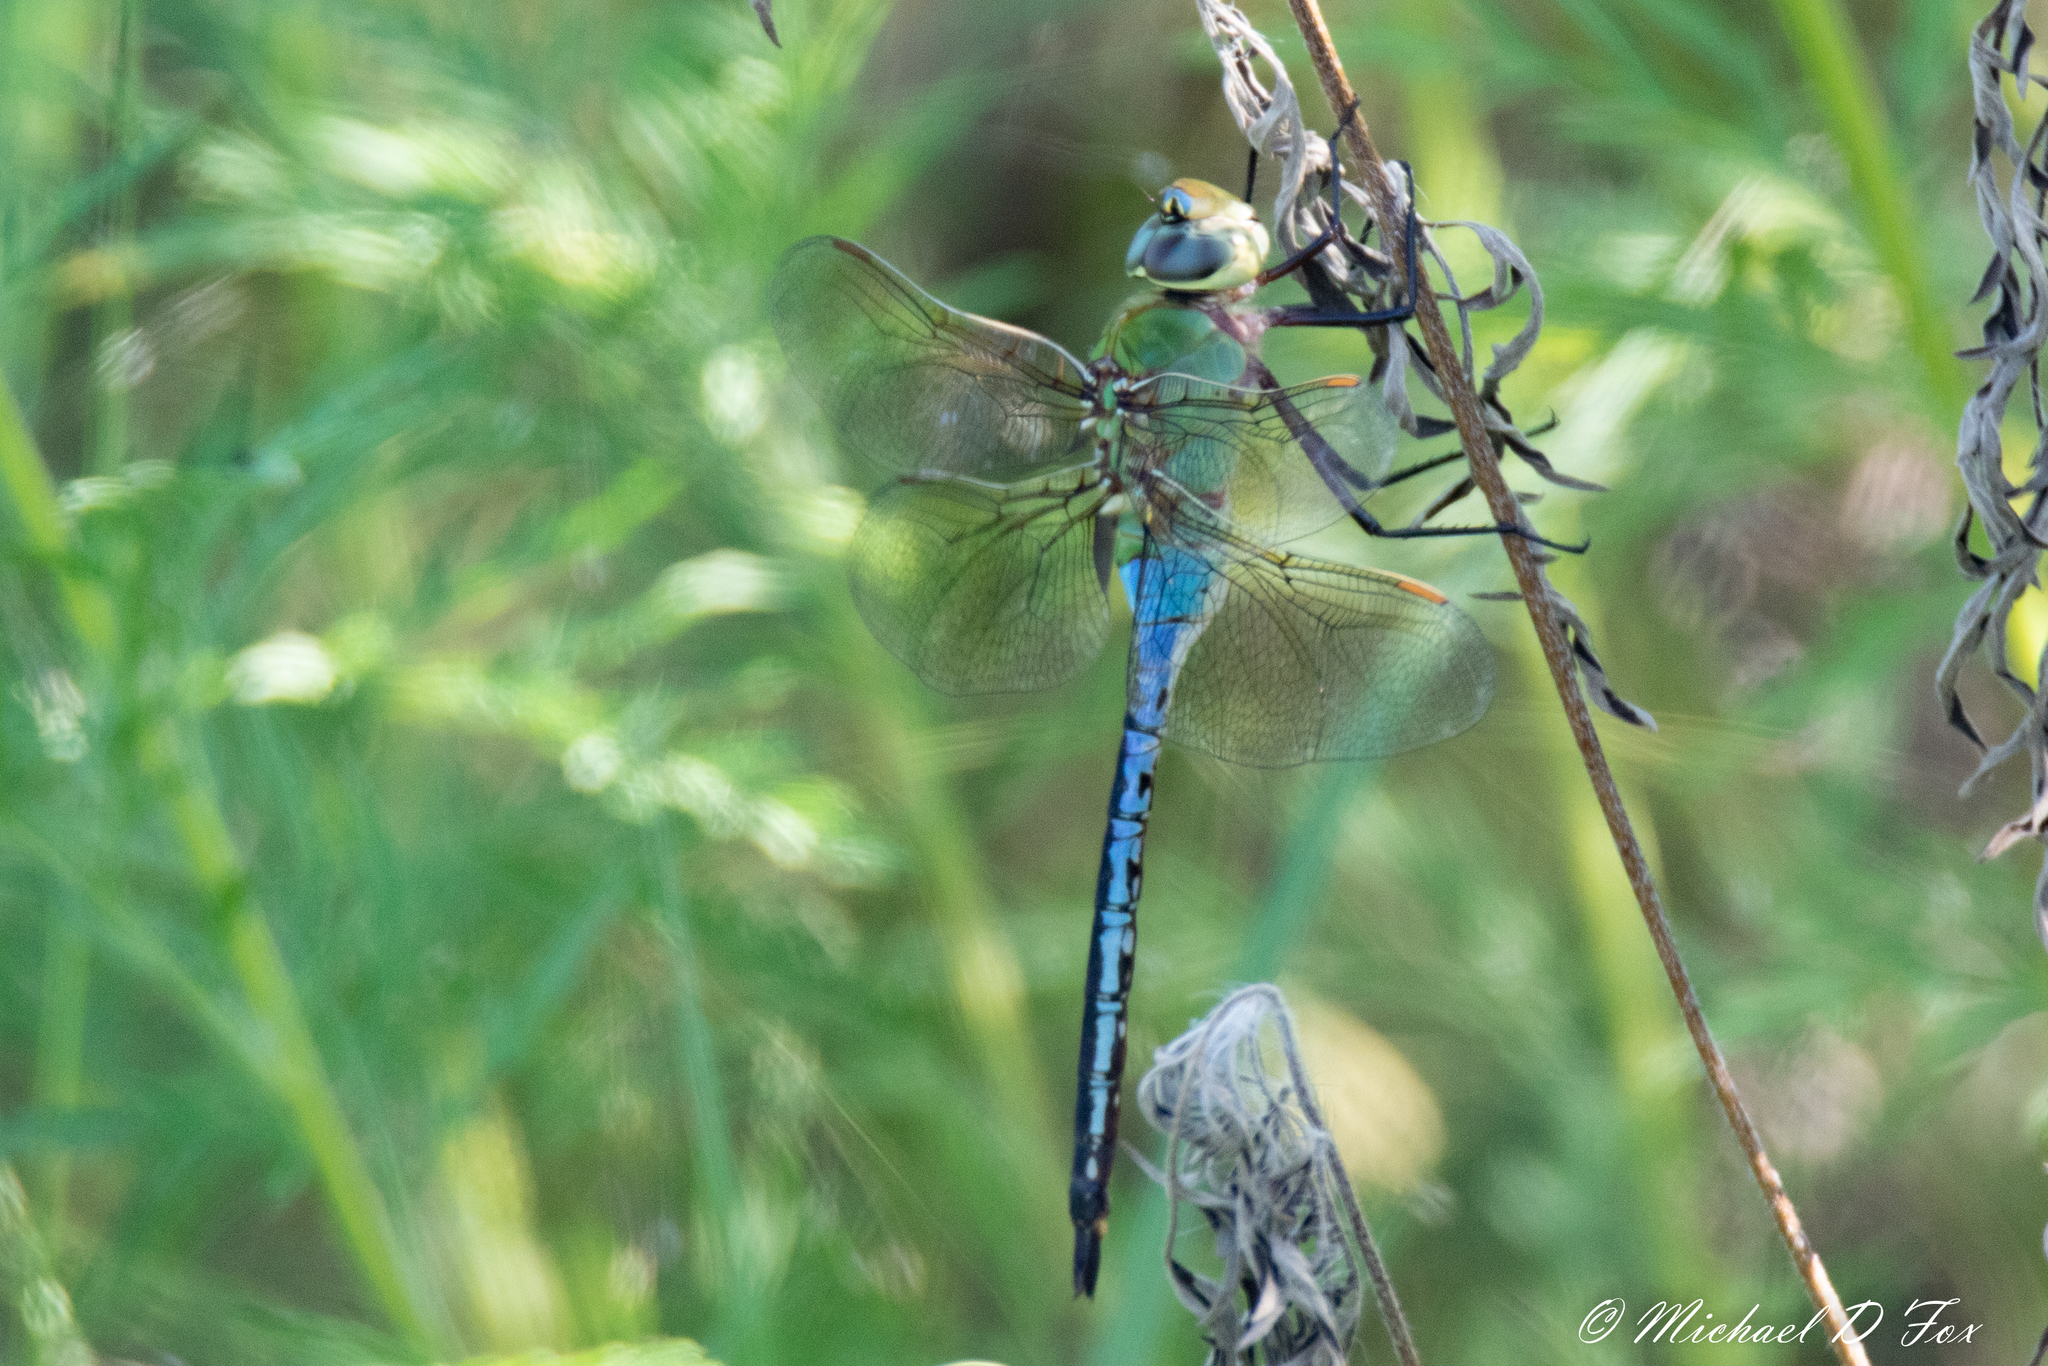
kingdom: Animalia
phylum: Arthropoda
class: Insecta
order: Odonata
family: Aeshnidae
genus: Anax
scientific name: Anax junius
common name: Common green darner
